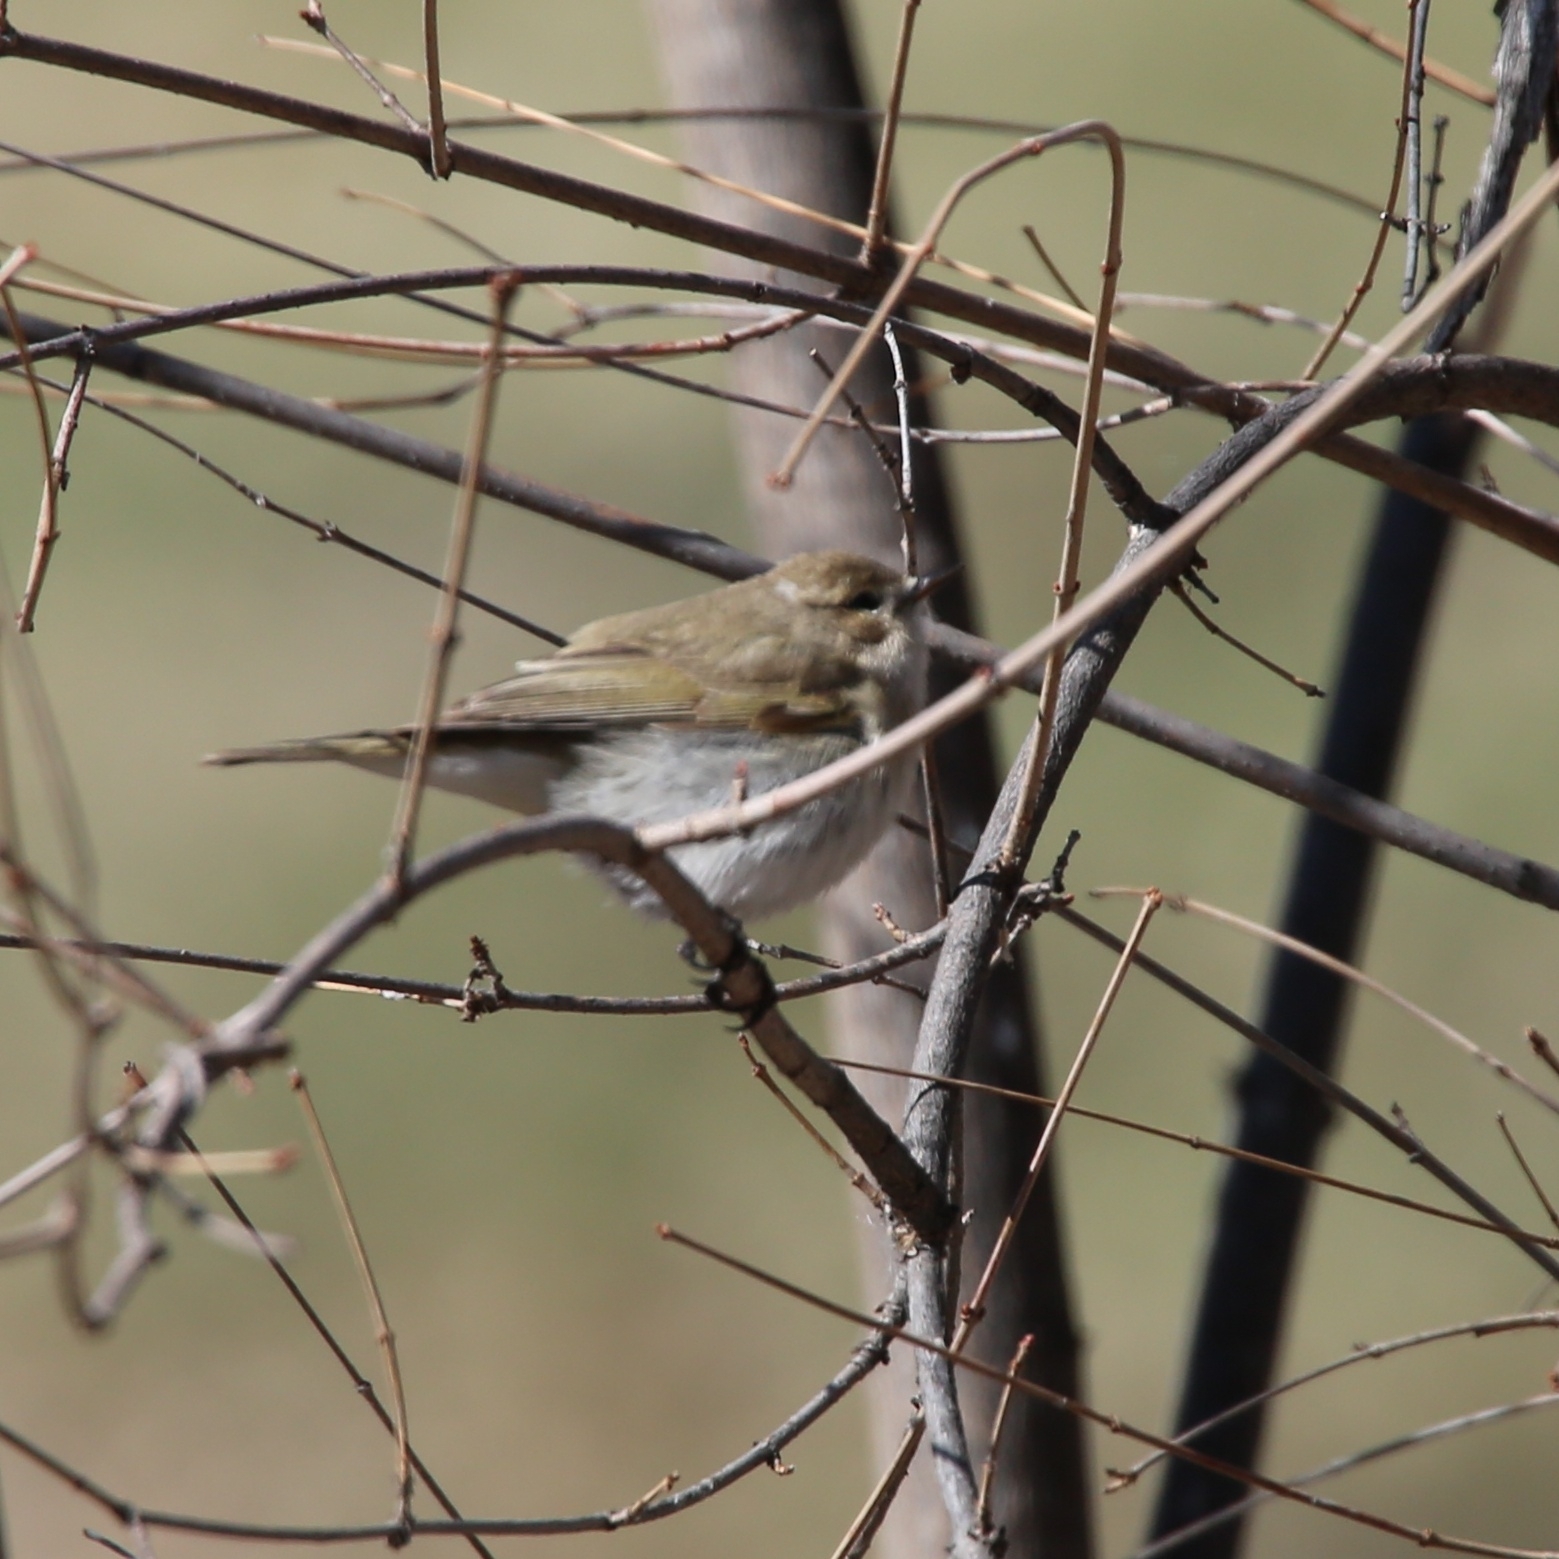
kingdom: Animalia
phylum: Chordata
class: Aves
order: Passeriformes
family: Phylloscopidae
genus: Phylloscopus
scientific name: Phylloscopus collybita
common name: Common chiffchaff
